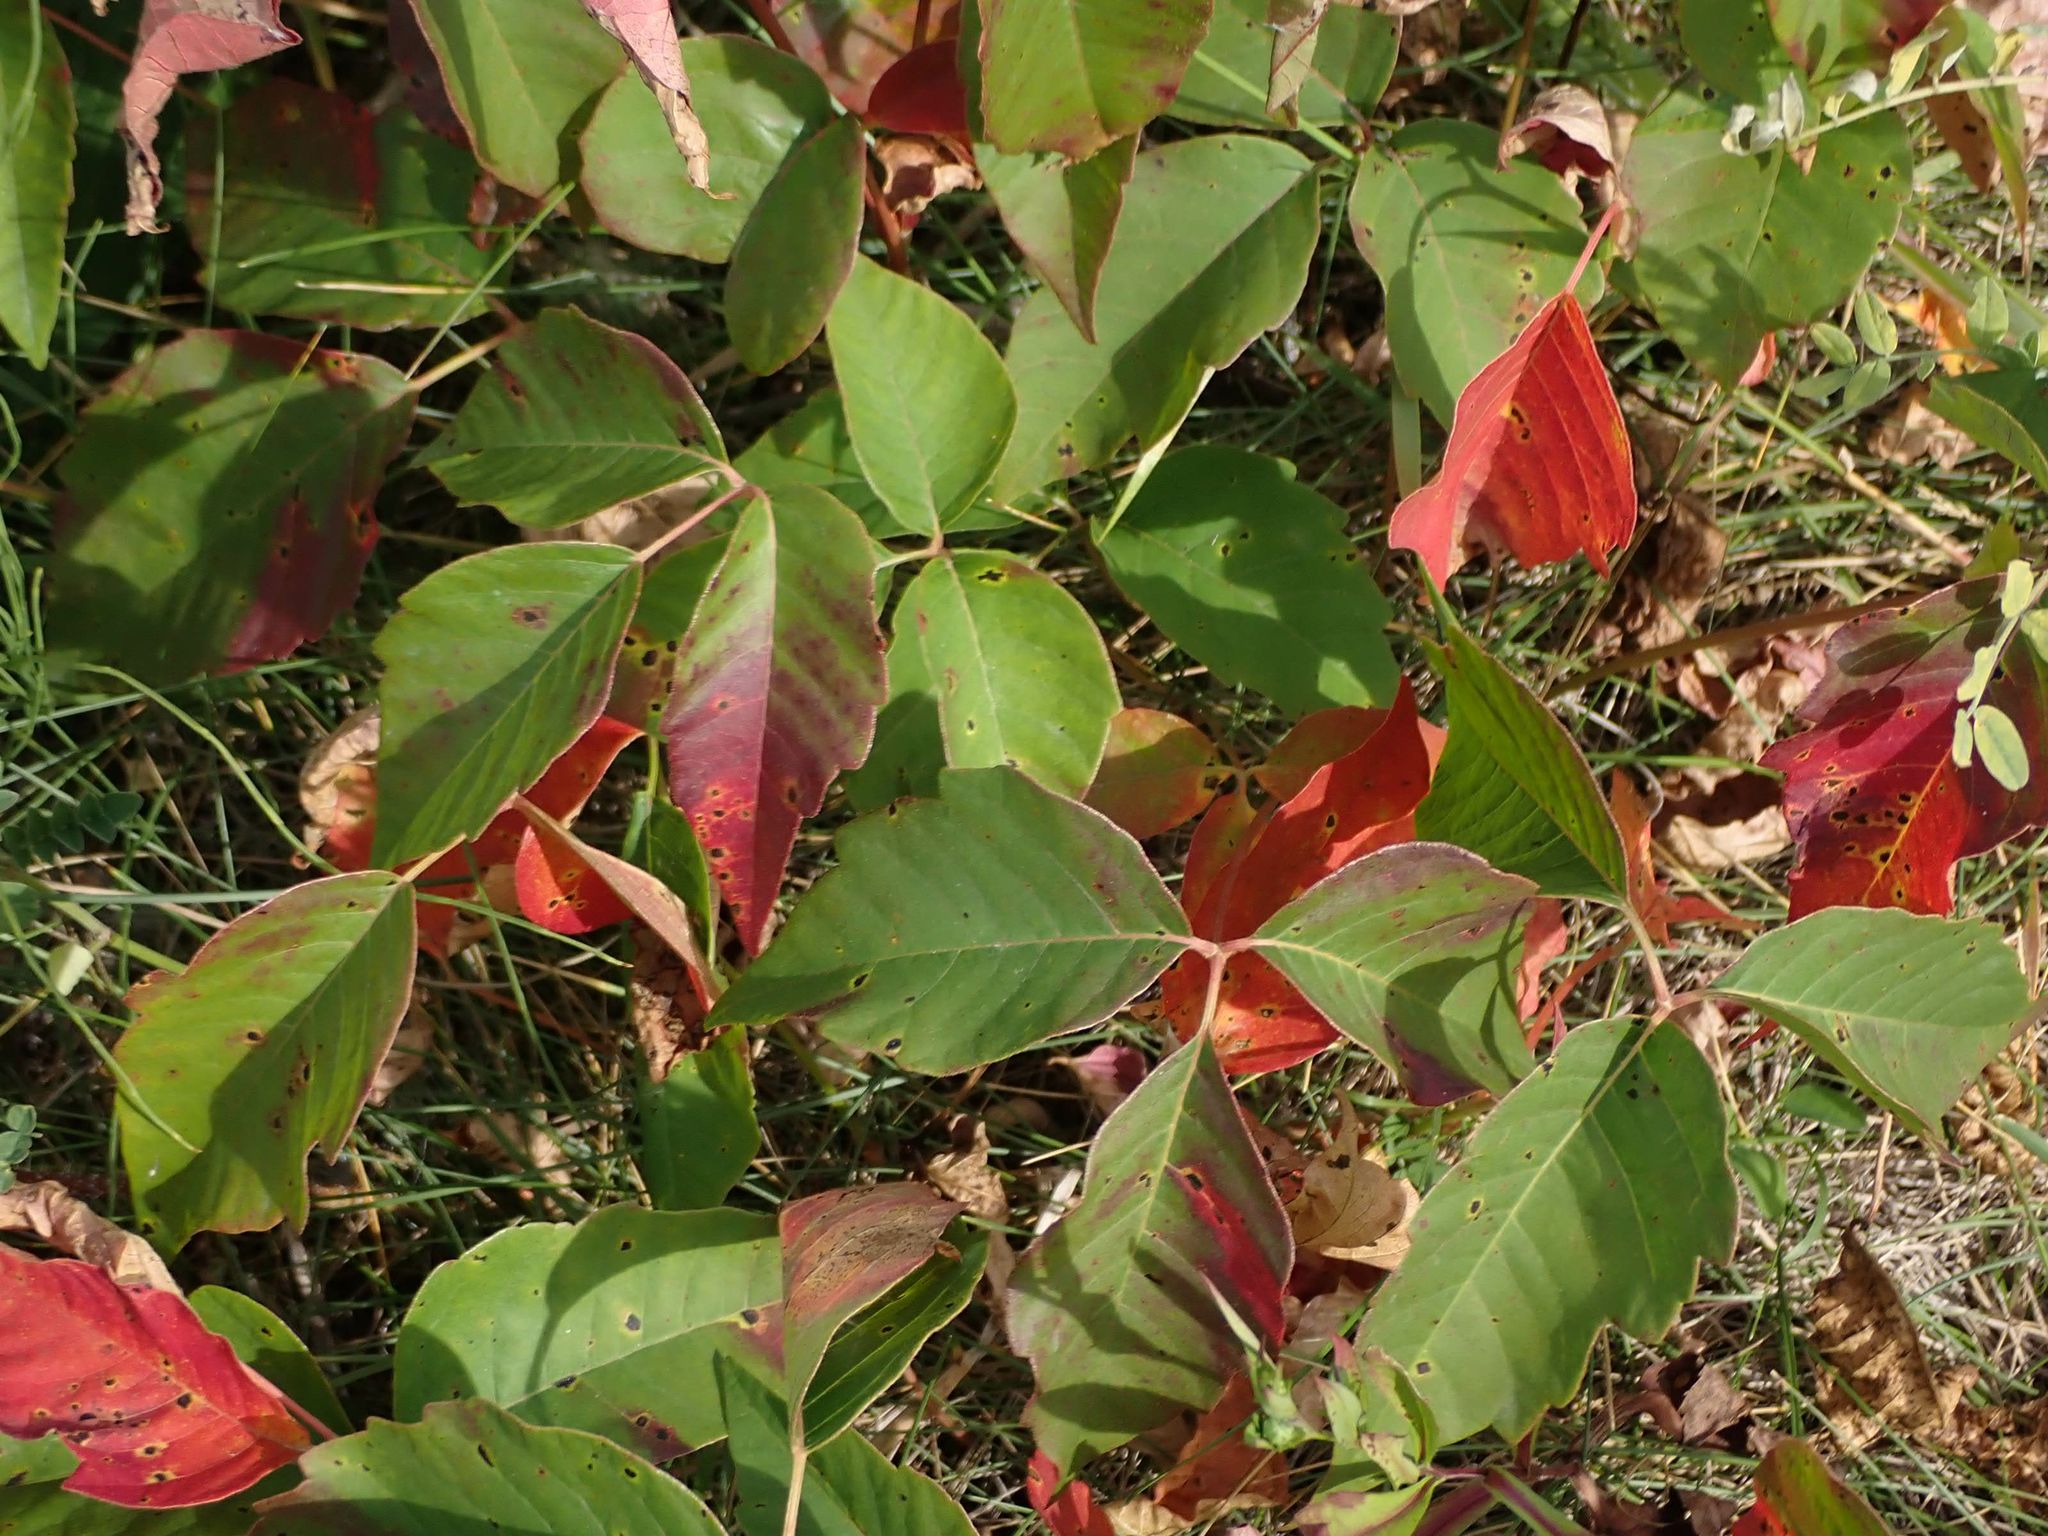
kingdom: Plantae
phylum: Tracheophyta
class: Magnoliopsida
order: Sapindales
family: Anacardiaceae
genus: Toxicodendron
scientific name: Toxicodendron rydbergii
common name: Rydberg's poison-ivy
